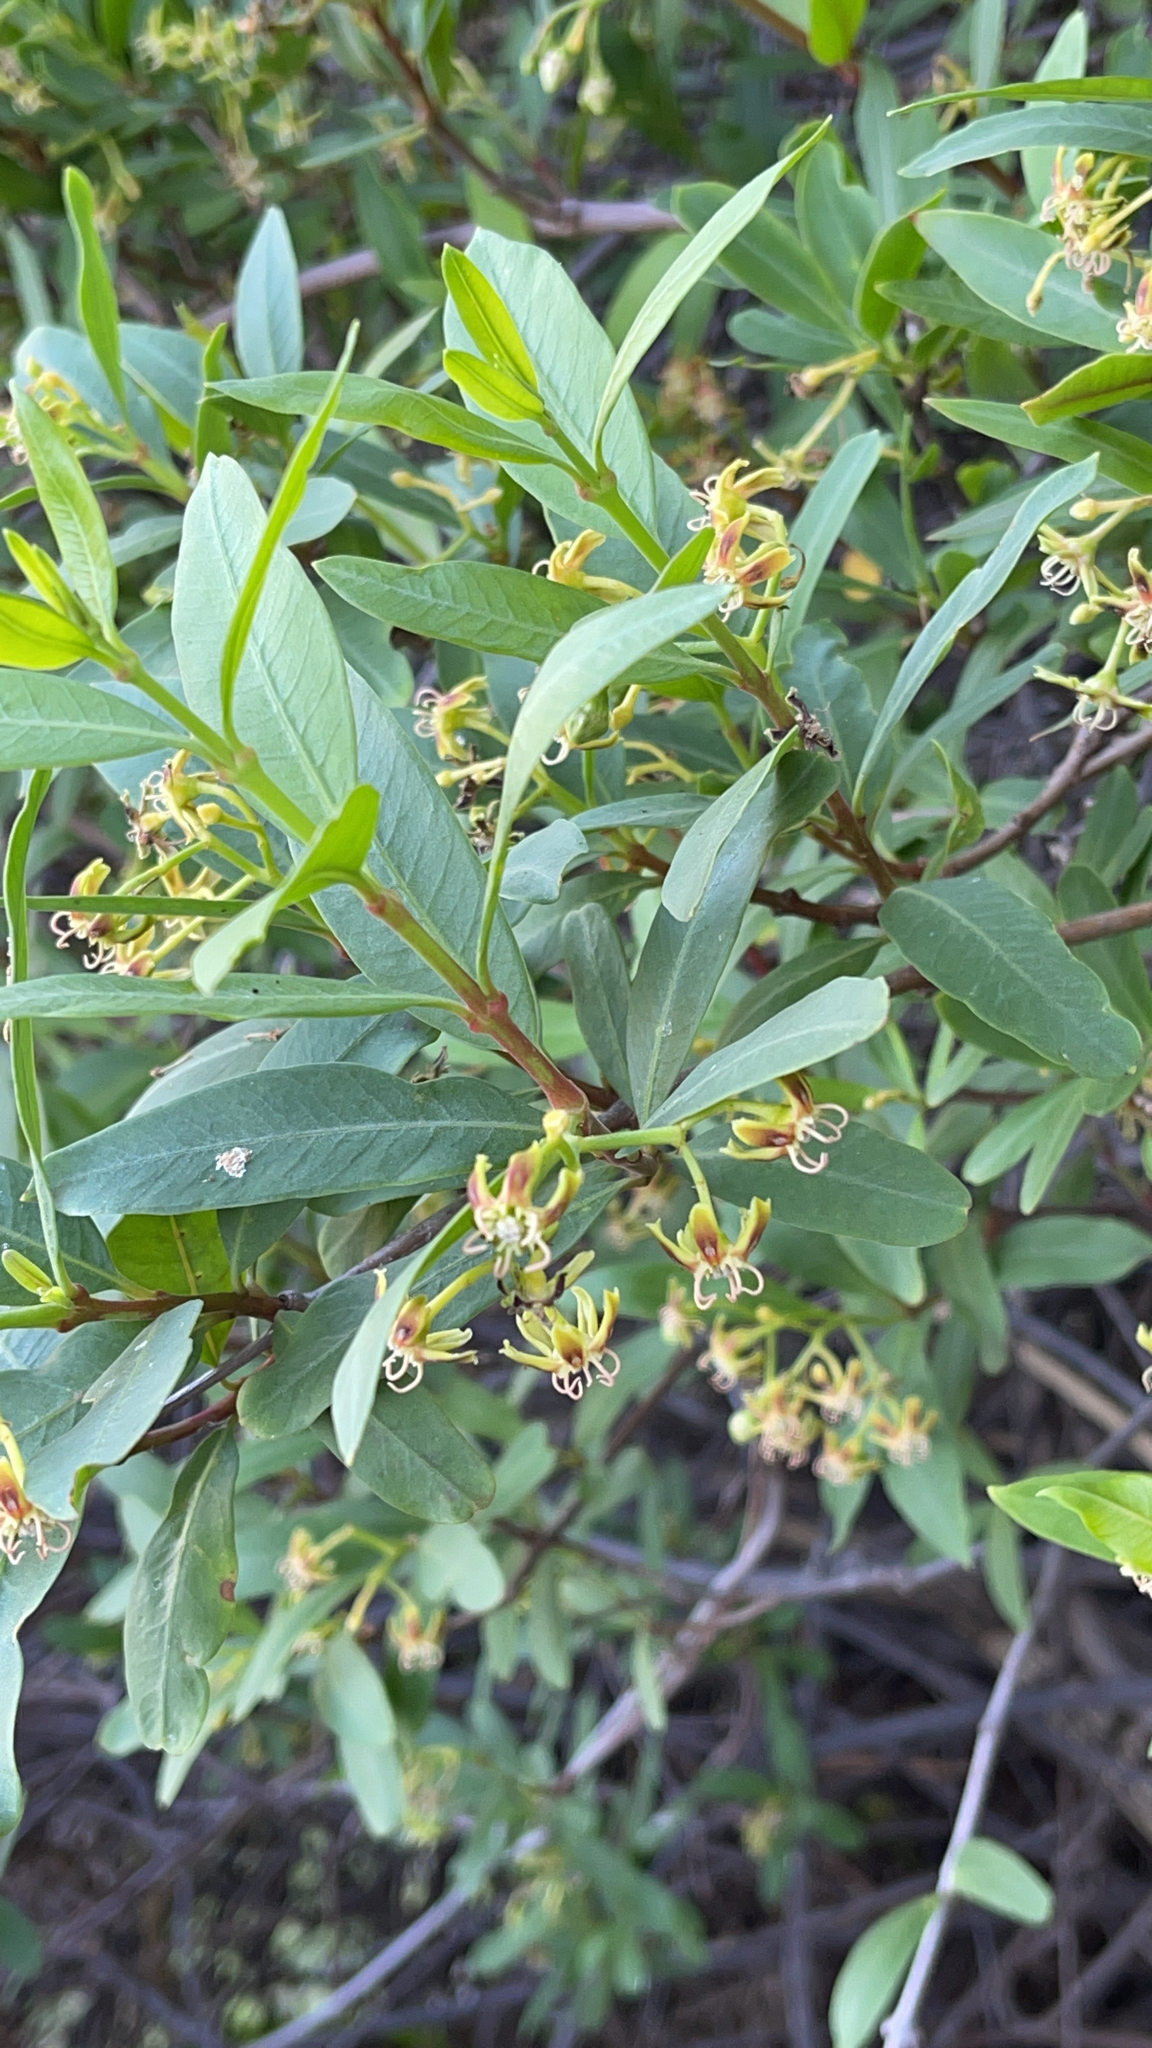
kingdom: Plantae
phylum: Tracheophyta
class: Magnoliopsida
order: Gentianales
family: Apocynaceae
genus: Periploca
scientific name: Periploca laevigata
